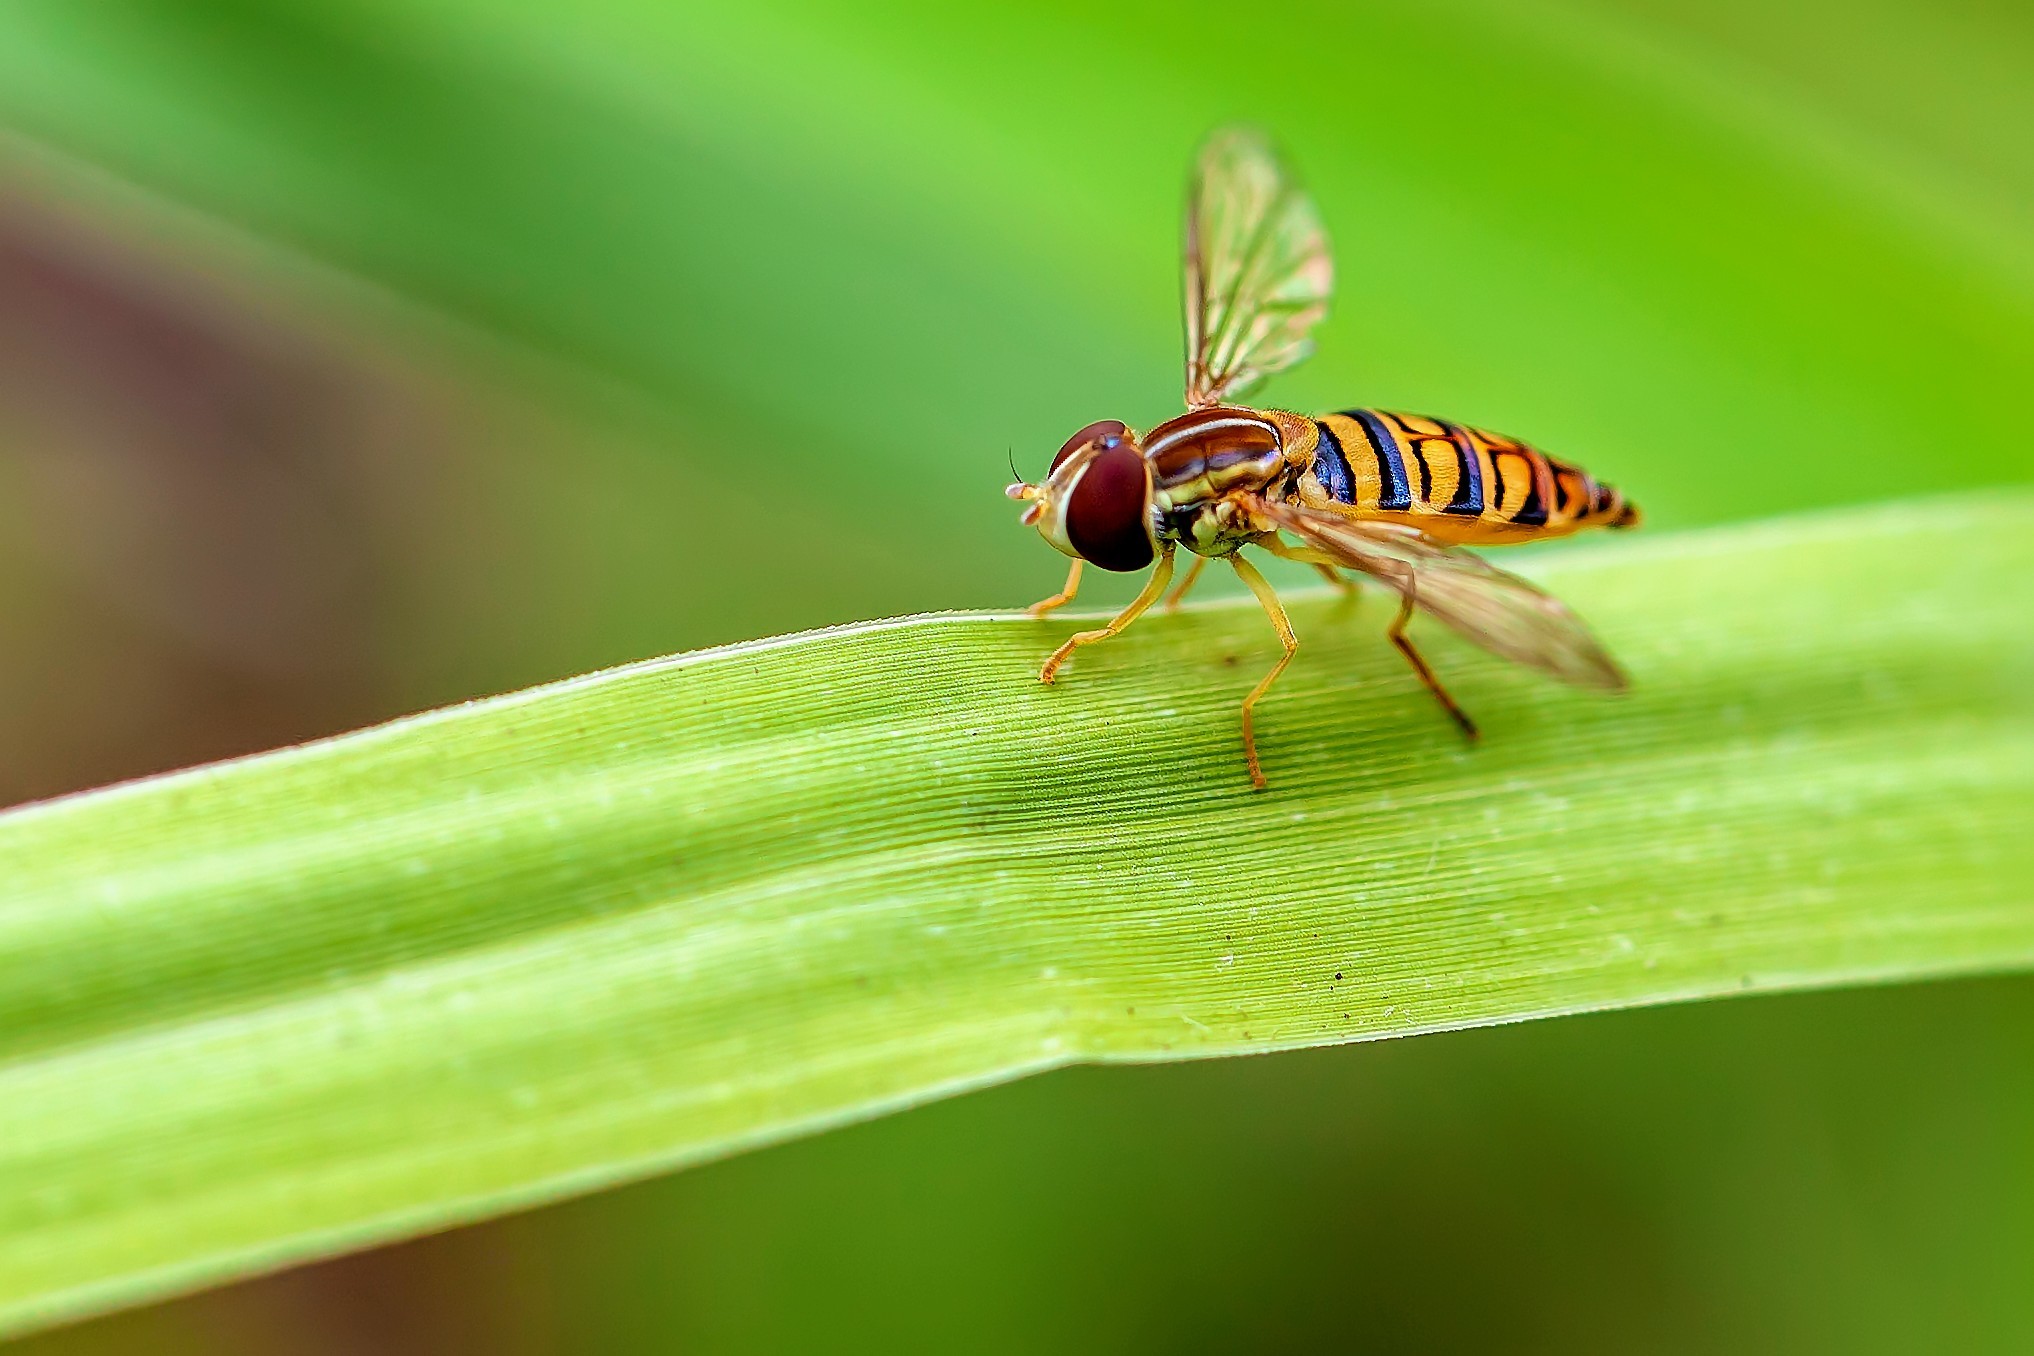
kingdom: Animalia
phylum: Arthropoda
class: Insecta
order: Diptera
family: Syrphidae
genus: Toxomerus
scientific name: Toxomerus politus
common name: Maize calligrapher
